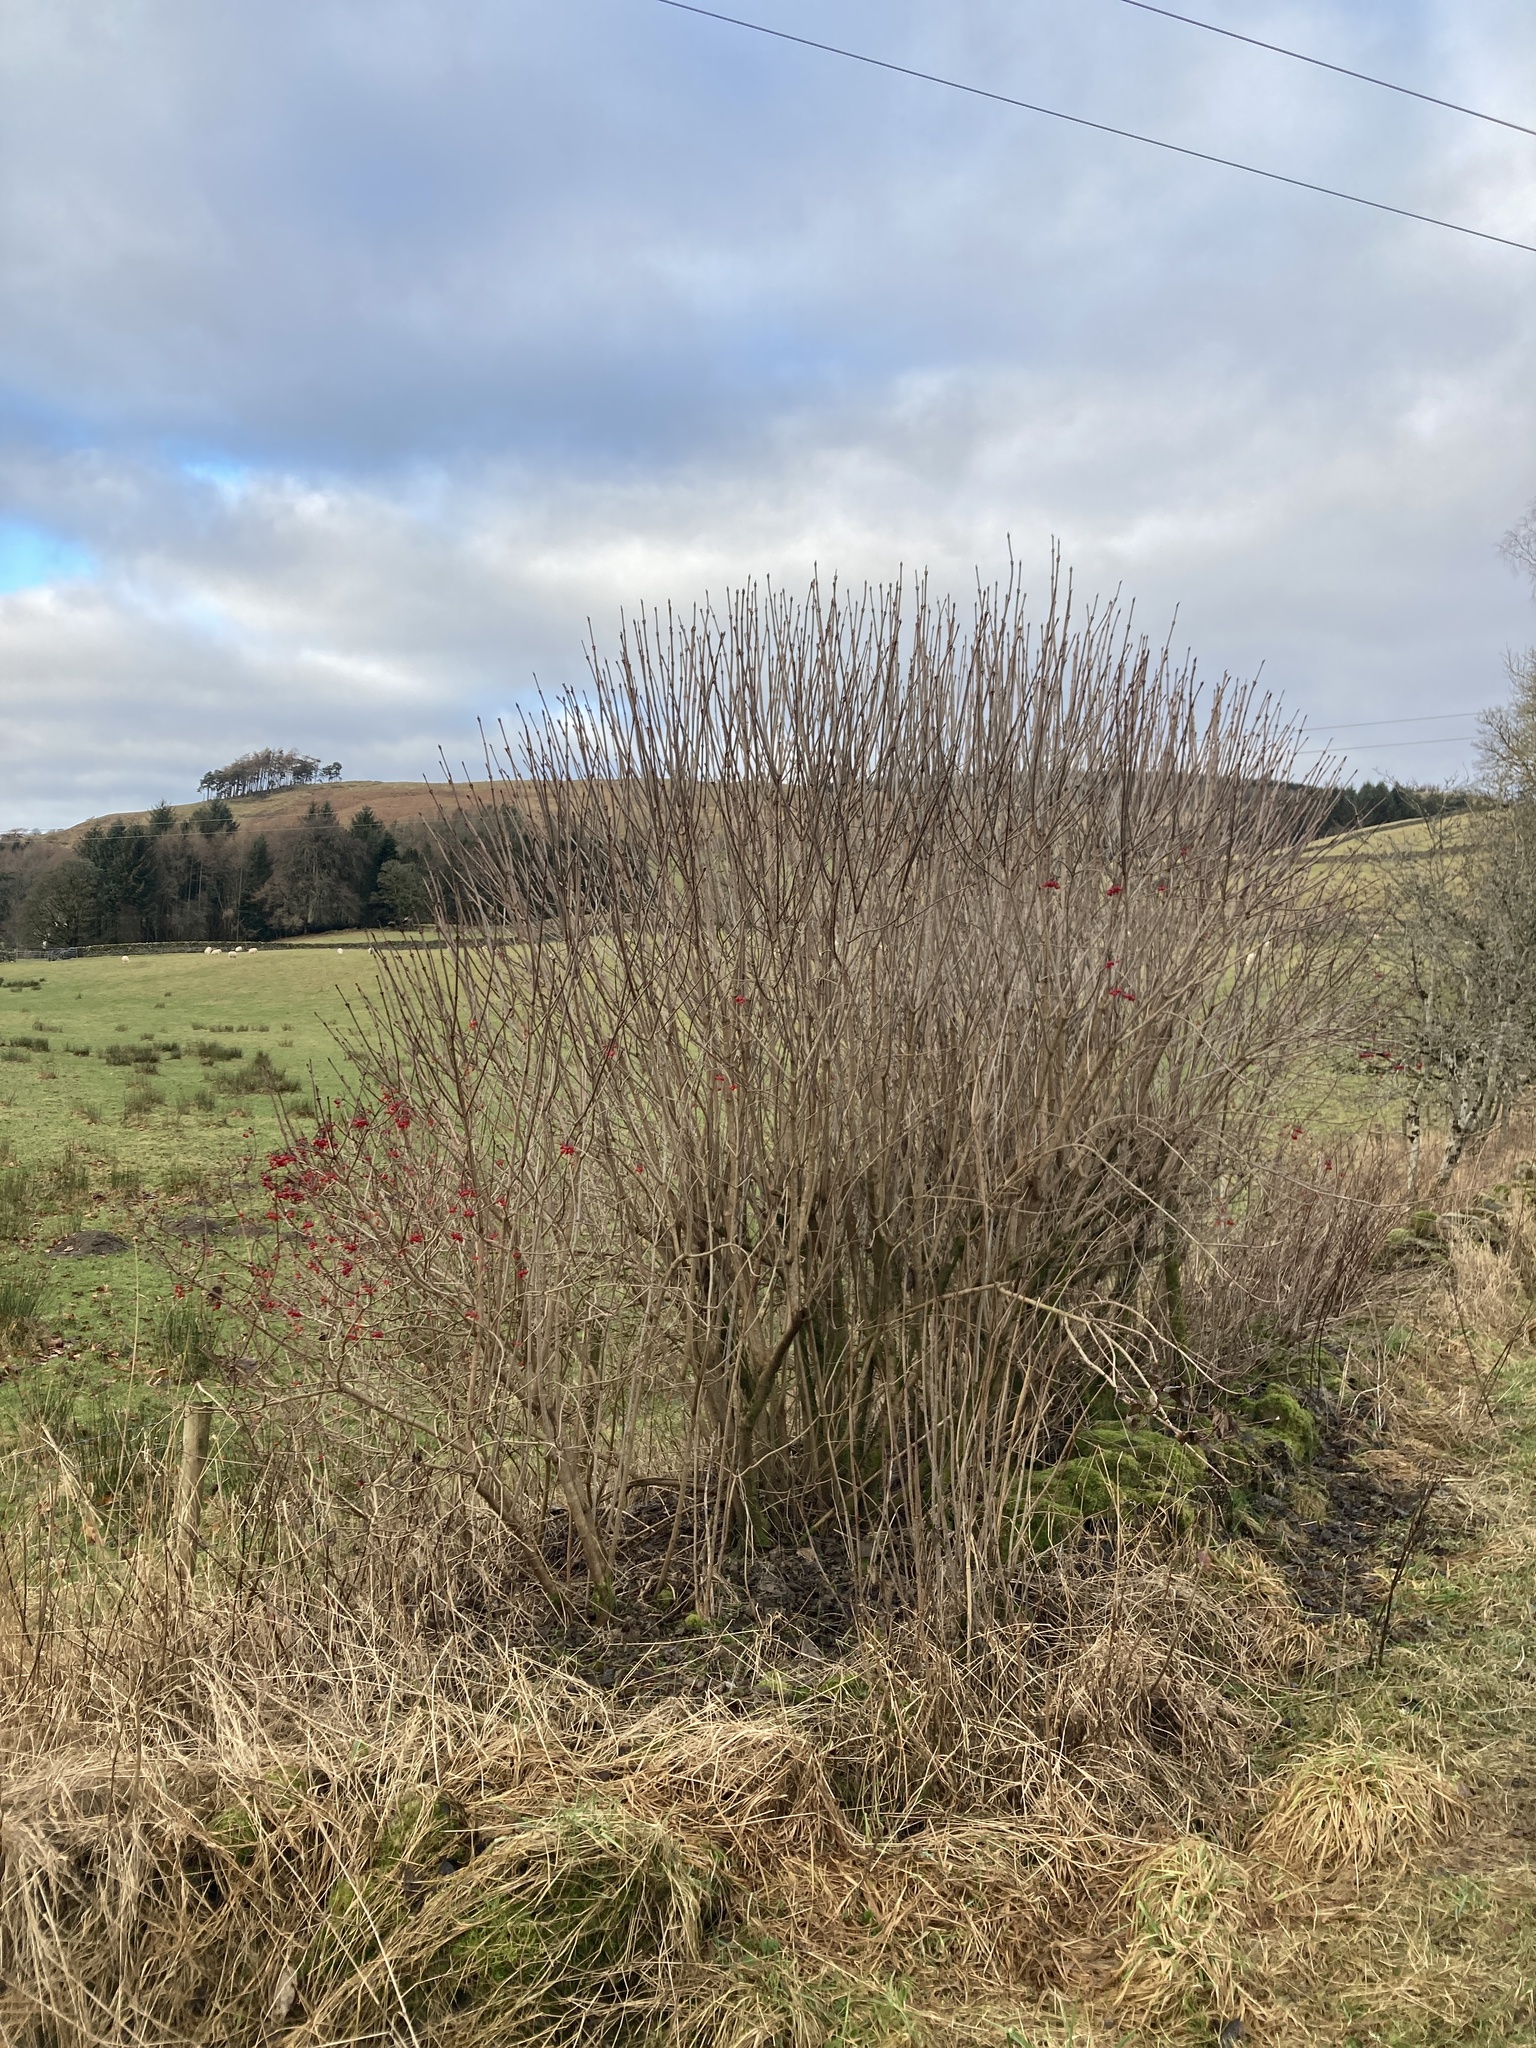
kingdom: Plantae
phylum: Tracheophyta
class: Magnoliopsida
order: Dipsacales
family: Viburnaceae
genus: Viburnum
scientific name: Viburnum opulus
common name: Guelder-rose
